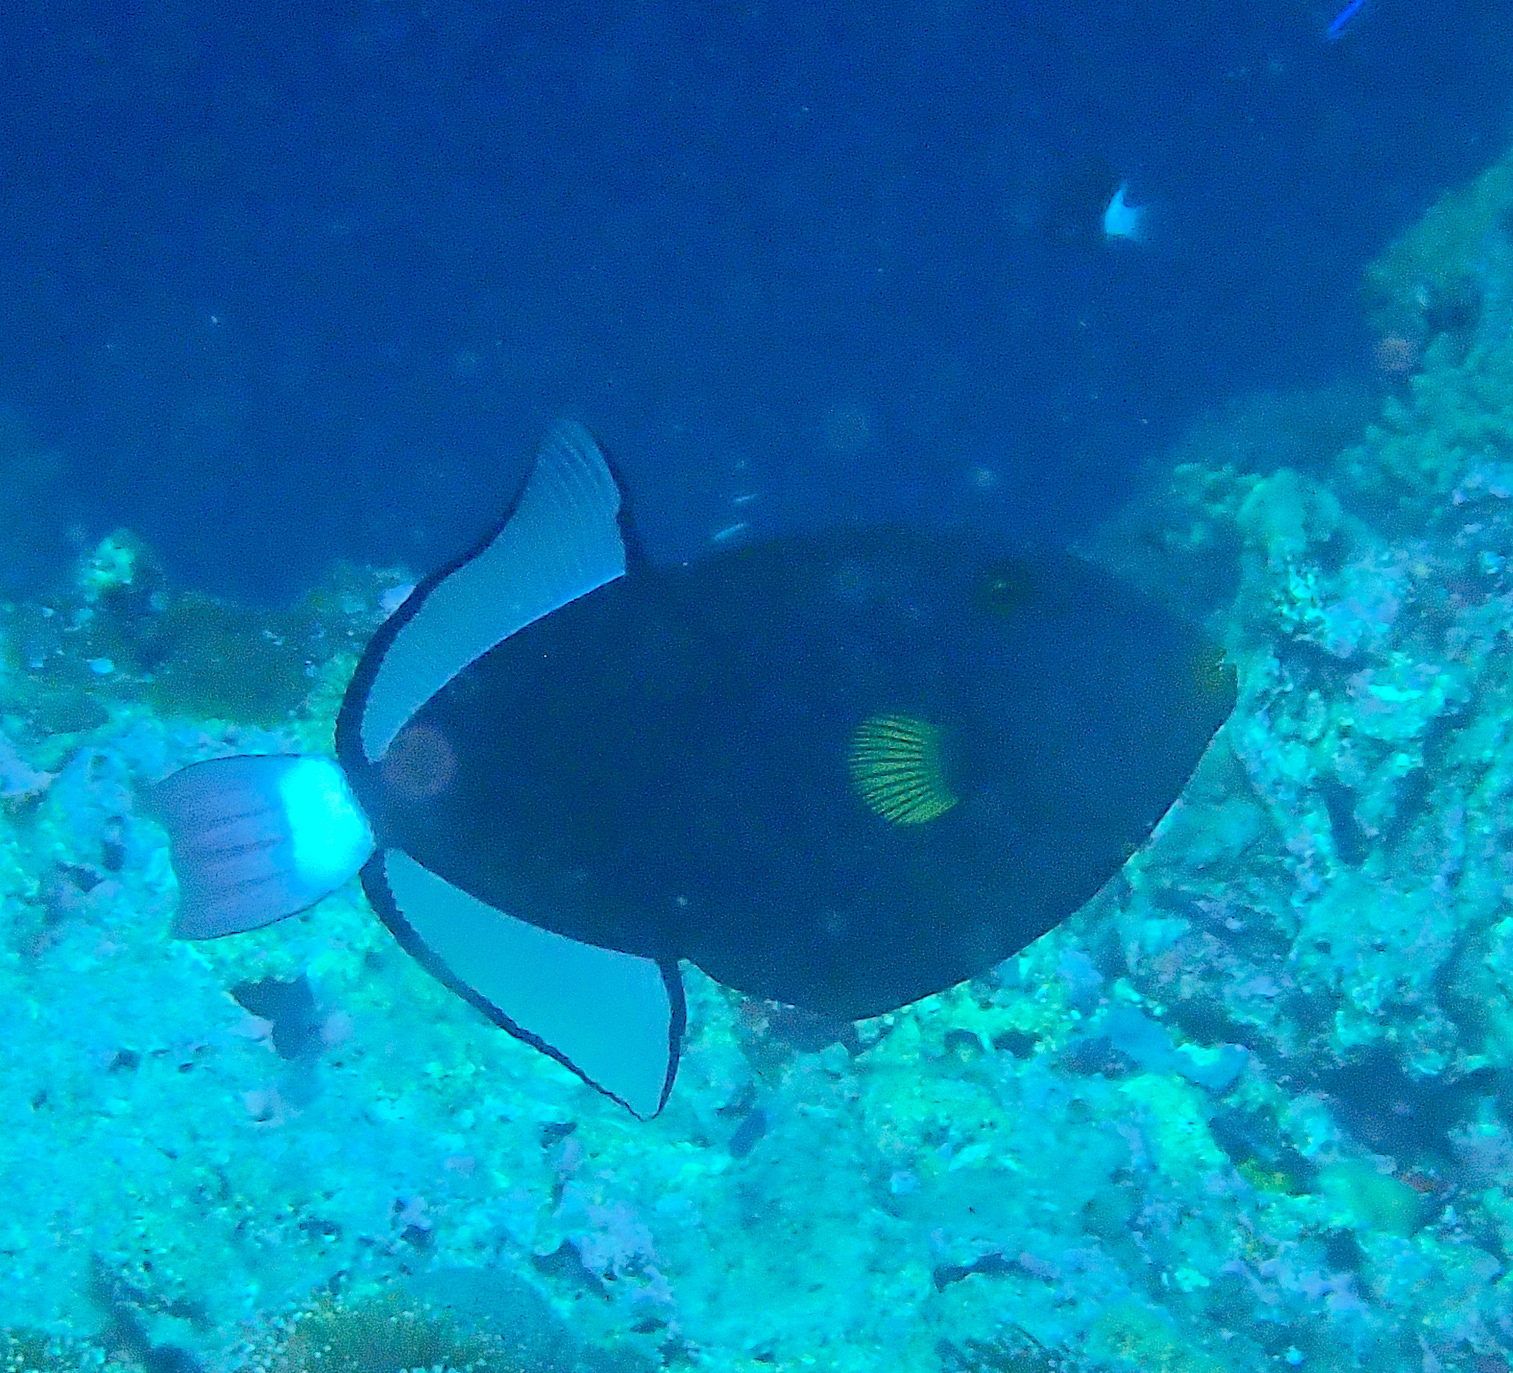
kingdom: Animalia
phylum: Chordata
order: Tetraodontiformes
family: Balistidae
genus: Melichthys
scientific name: Melichthys vidua
